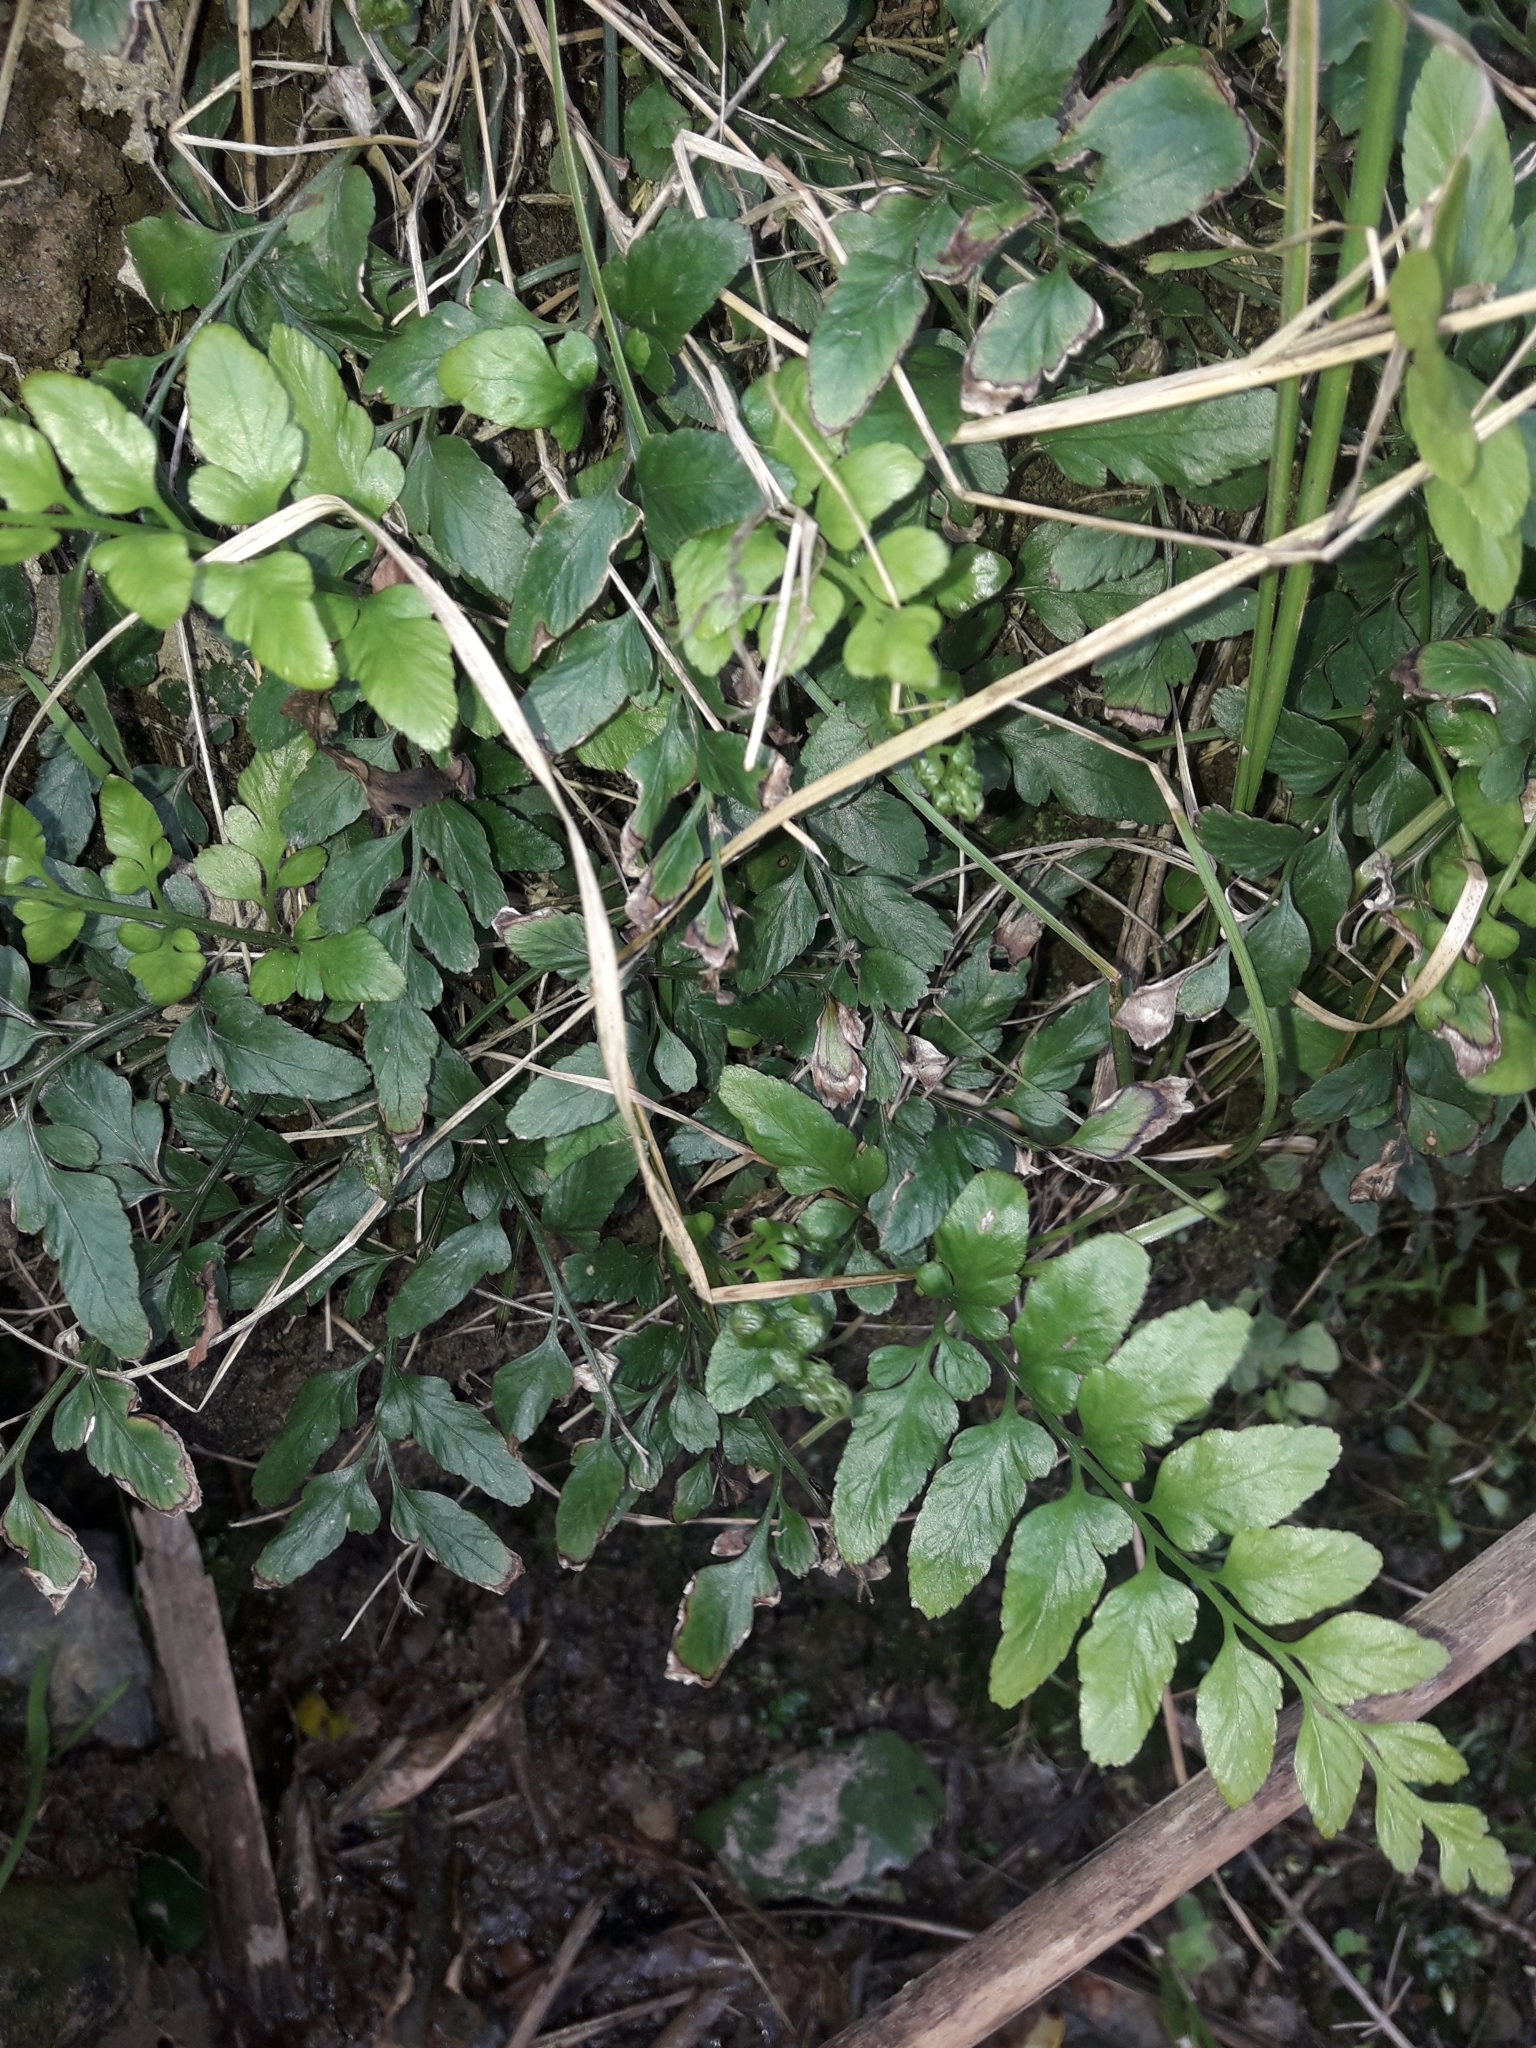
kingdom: Plantae
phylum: Tracheophyta
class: Polypodiopsida
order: Polypodiales
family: Aspleniaceae
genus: Asplenium
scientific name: Asplenium lyallii
